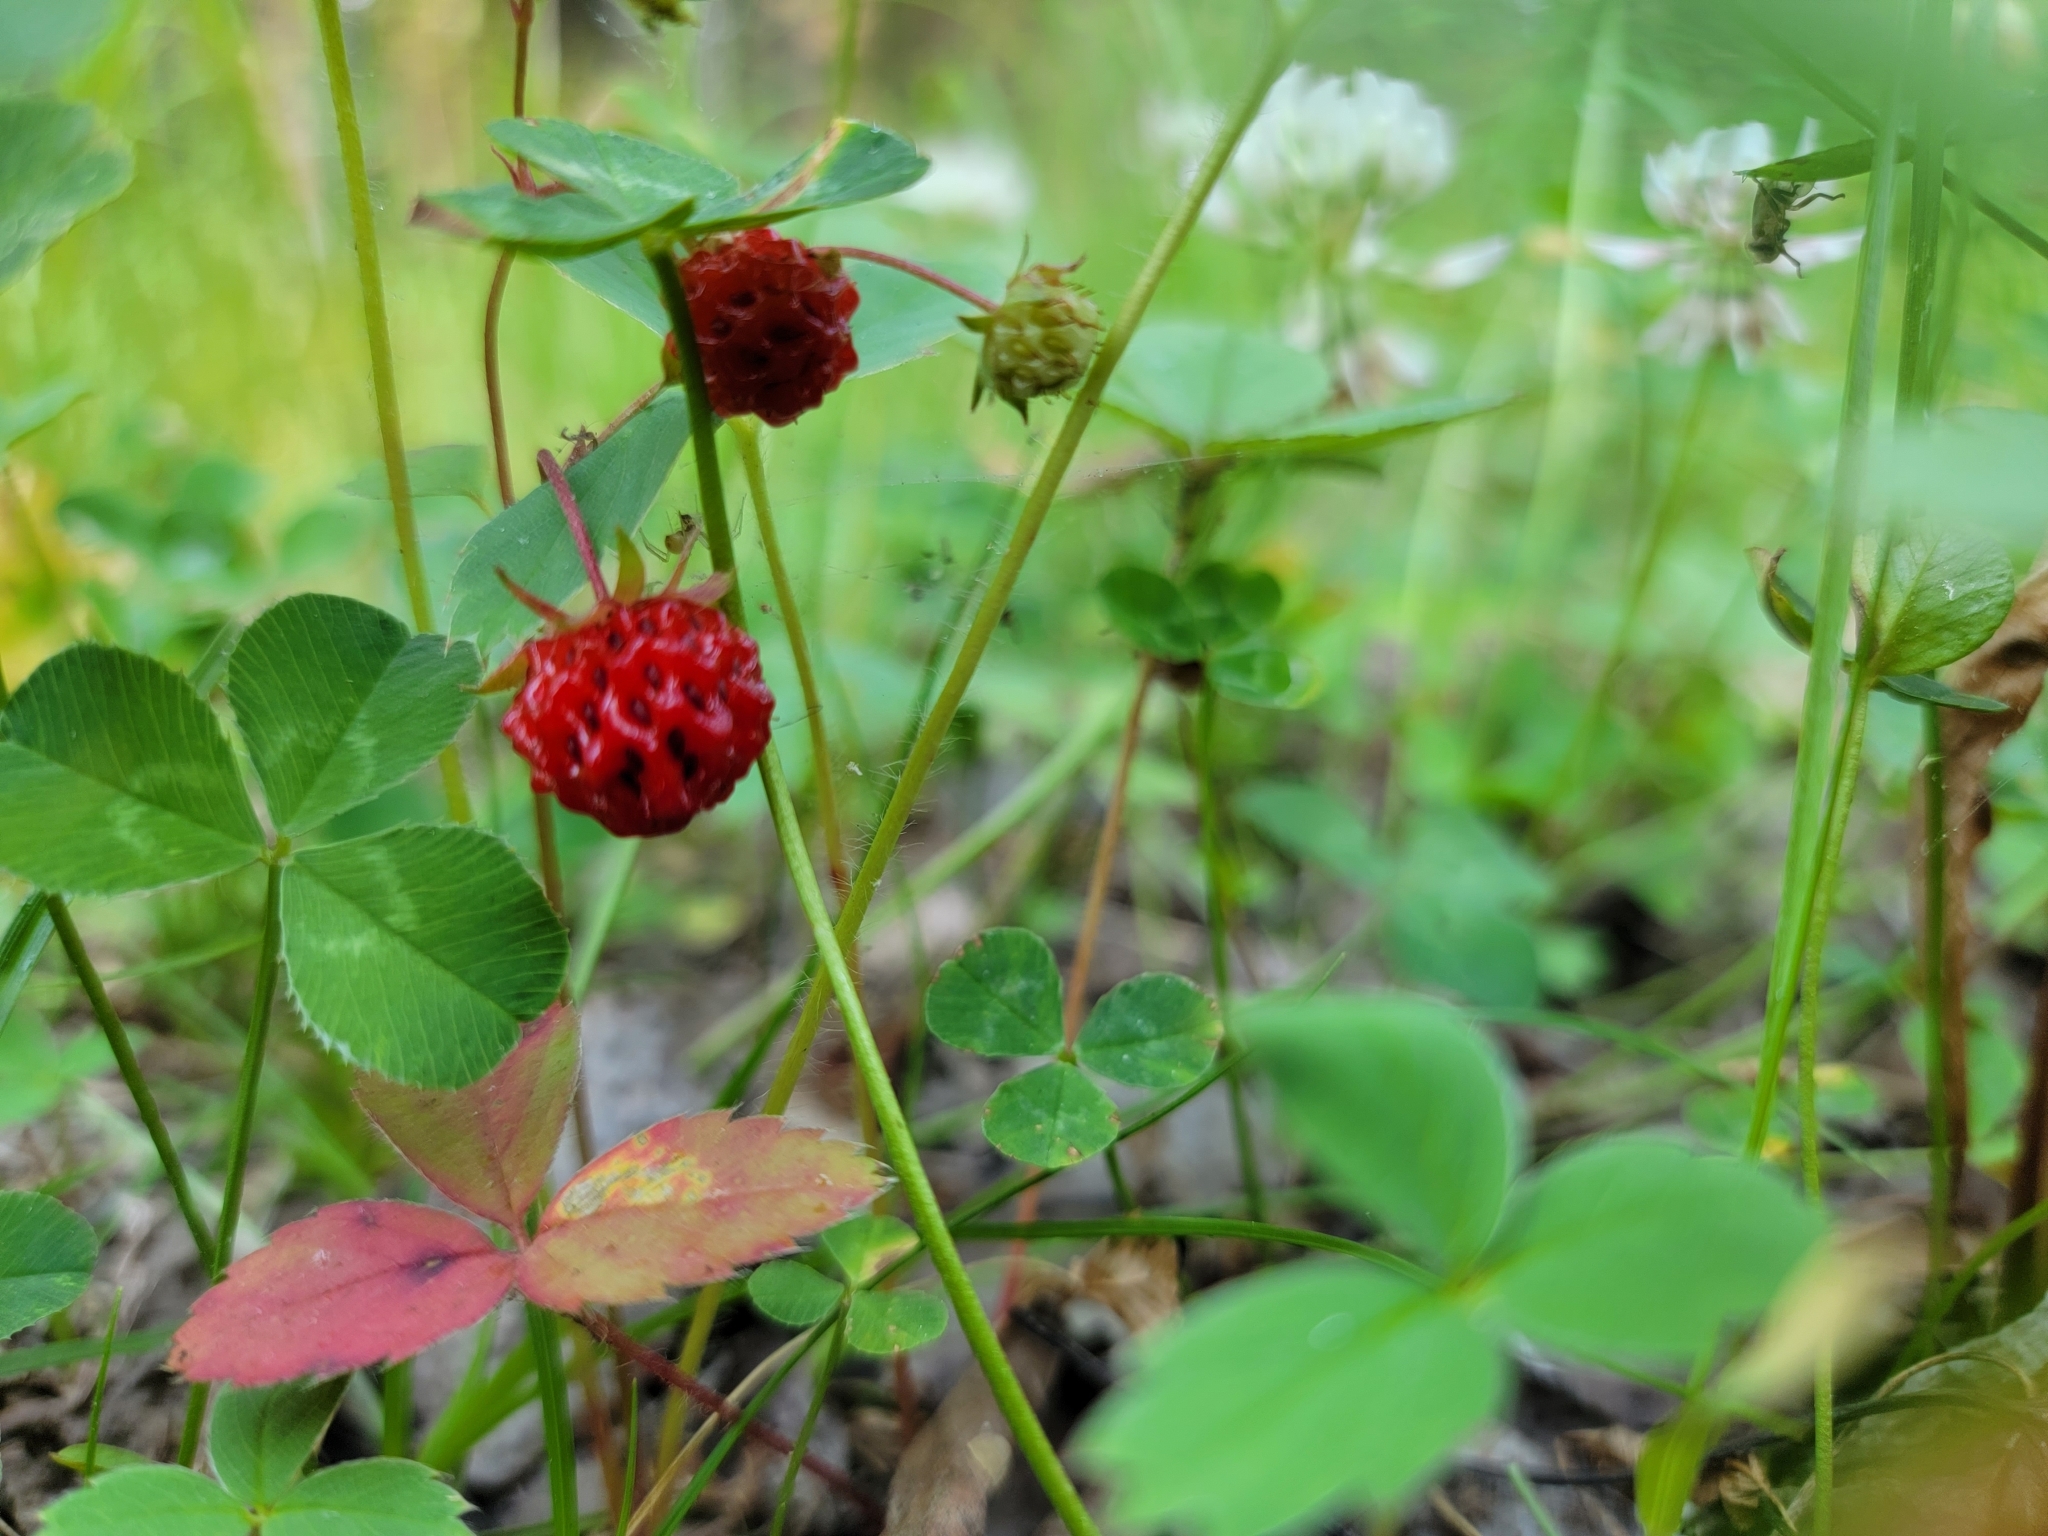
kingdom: Plantae
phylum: Tracheophyta
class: Magnoliopsida
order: Rosales
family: Rosaceae
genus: Fragaria
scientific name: Fragaria virginiana
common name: Thickleaved wild strawberry
